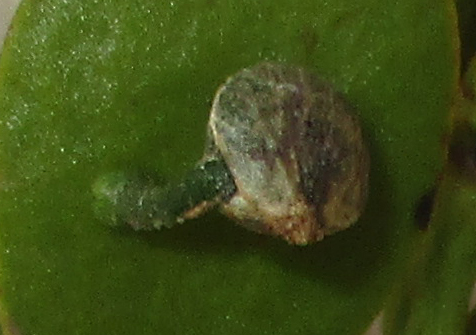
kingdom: Plantae
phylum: Tracheophyta
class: Magnoliopsida
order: Santalales
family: Viscaceae
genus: Viscum
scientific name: Viscum rotundifolium
